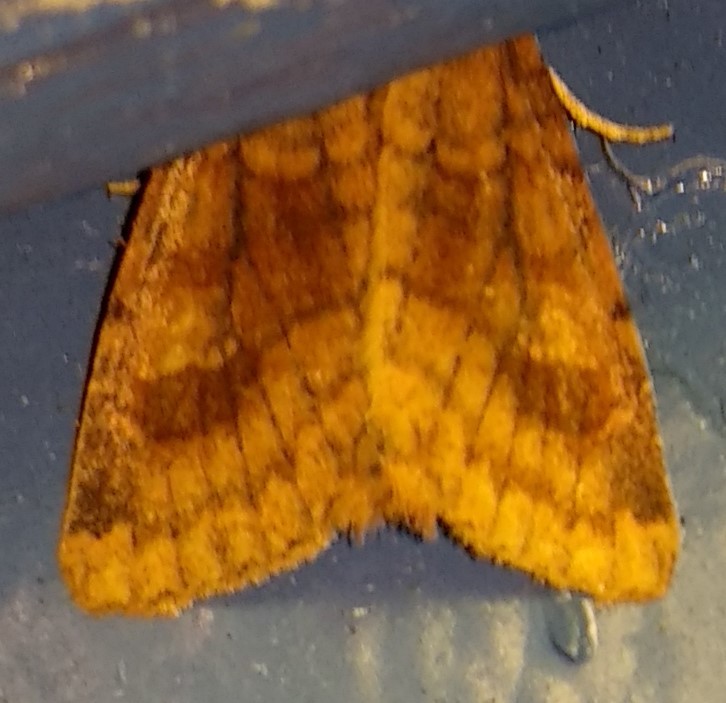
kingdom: Animalia
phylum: Arthropoda
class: Insecta
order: Lepidoptera
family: Noctuidae
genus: Nephelodes
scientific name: Nephelodes minians
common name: Bronzed cutworm
